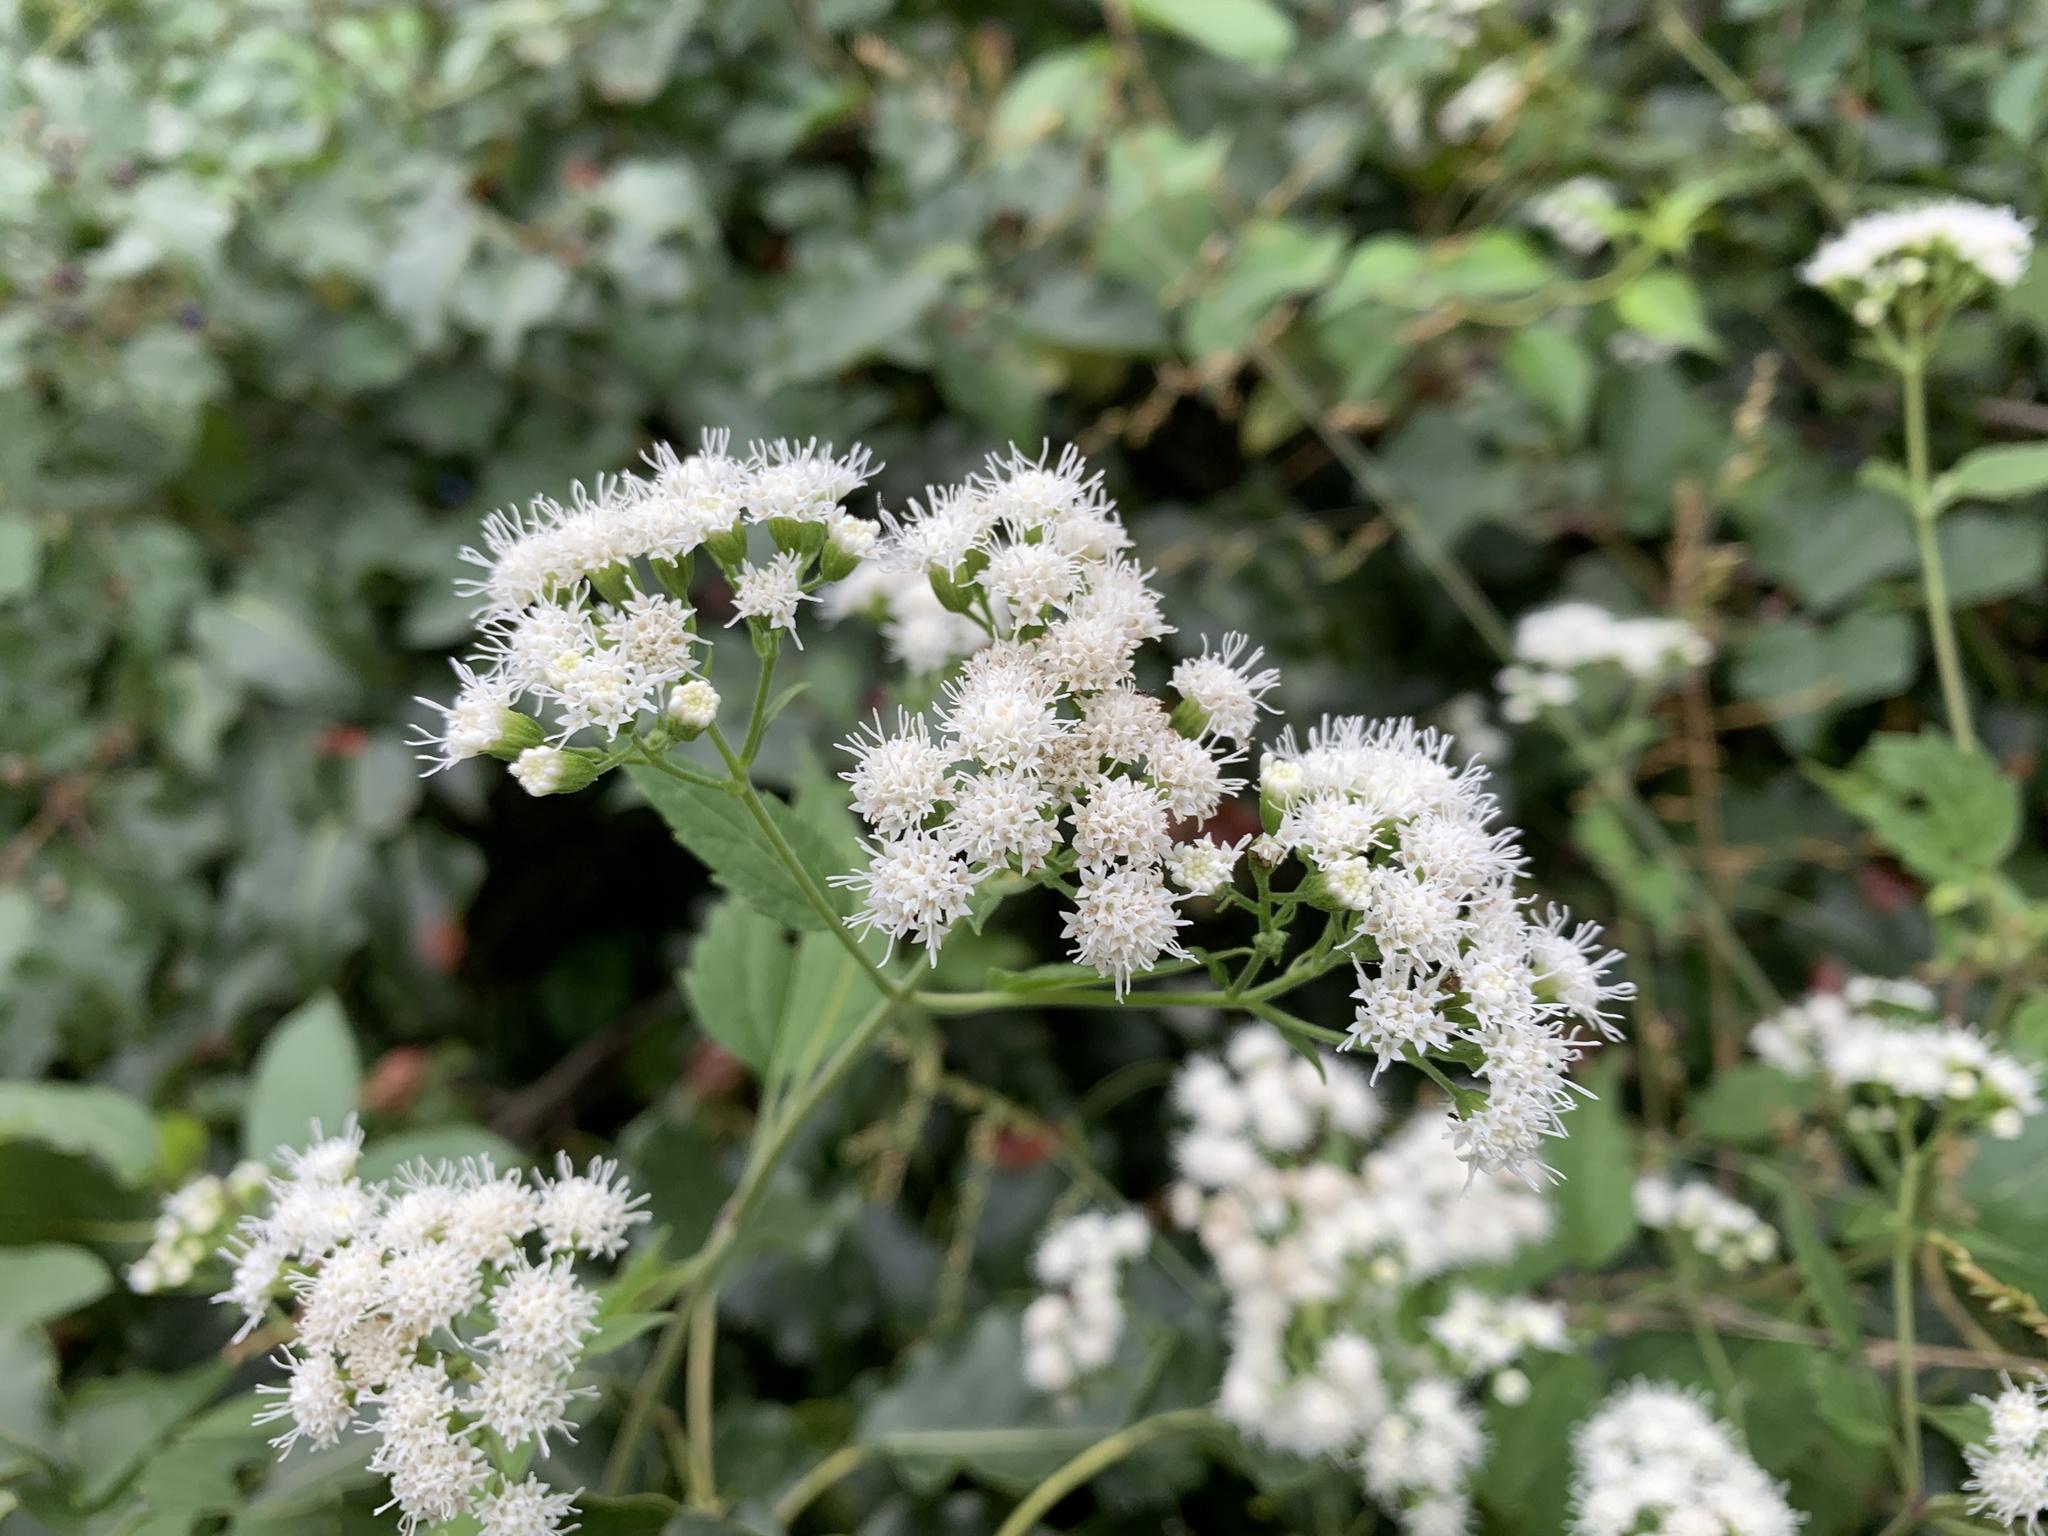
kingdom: Plantae
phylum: Tracheophyta
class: Magnoliopsida
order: Asterales
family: Asteraceae
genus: Ageratina
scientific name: Ageratina altissima
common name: White snakeroot
